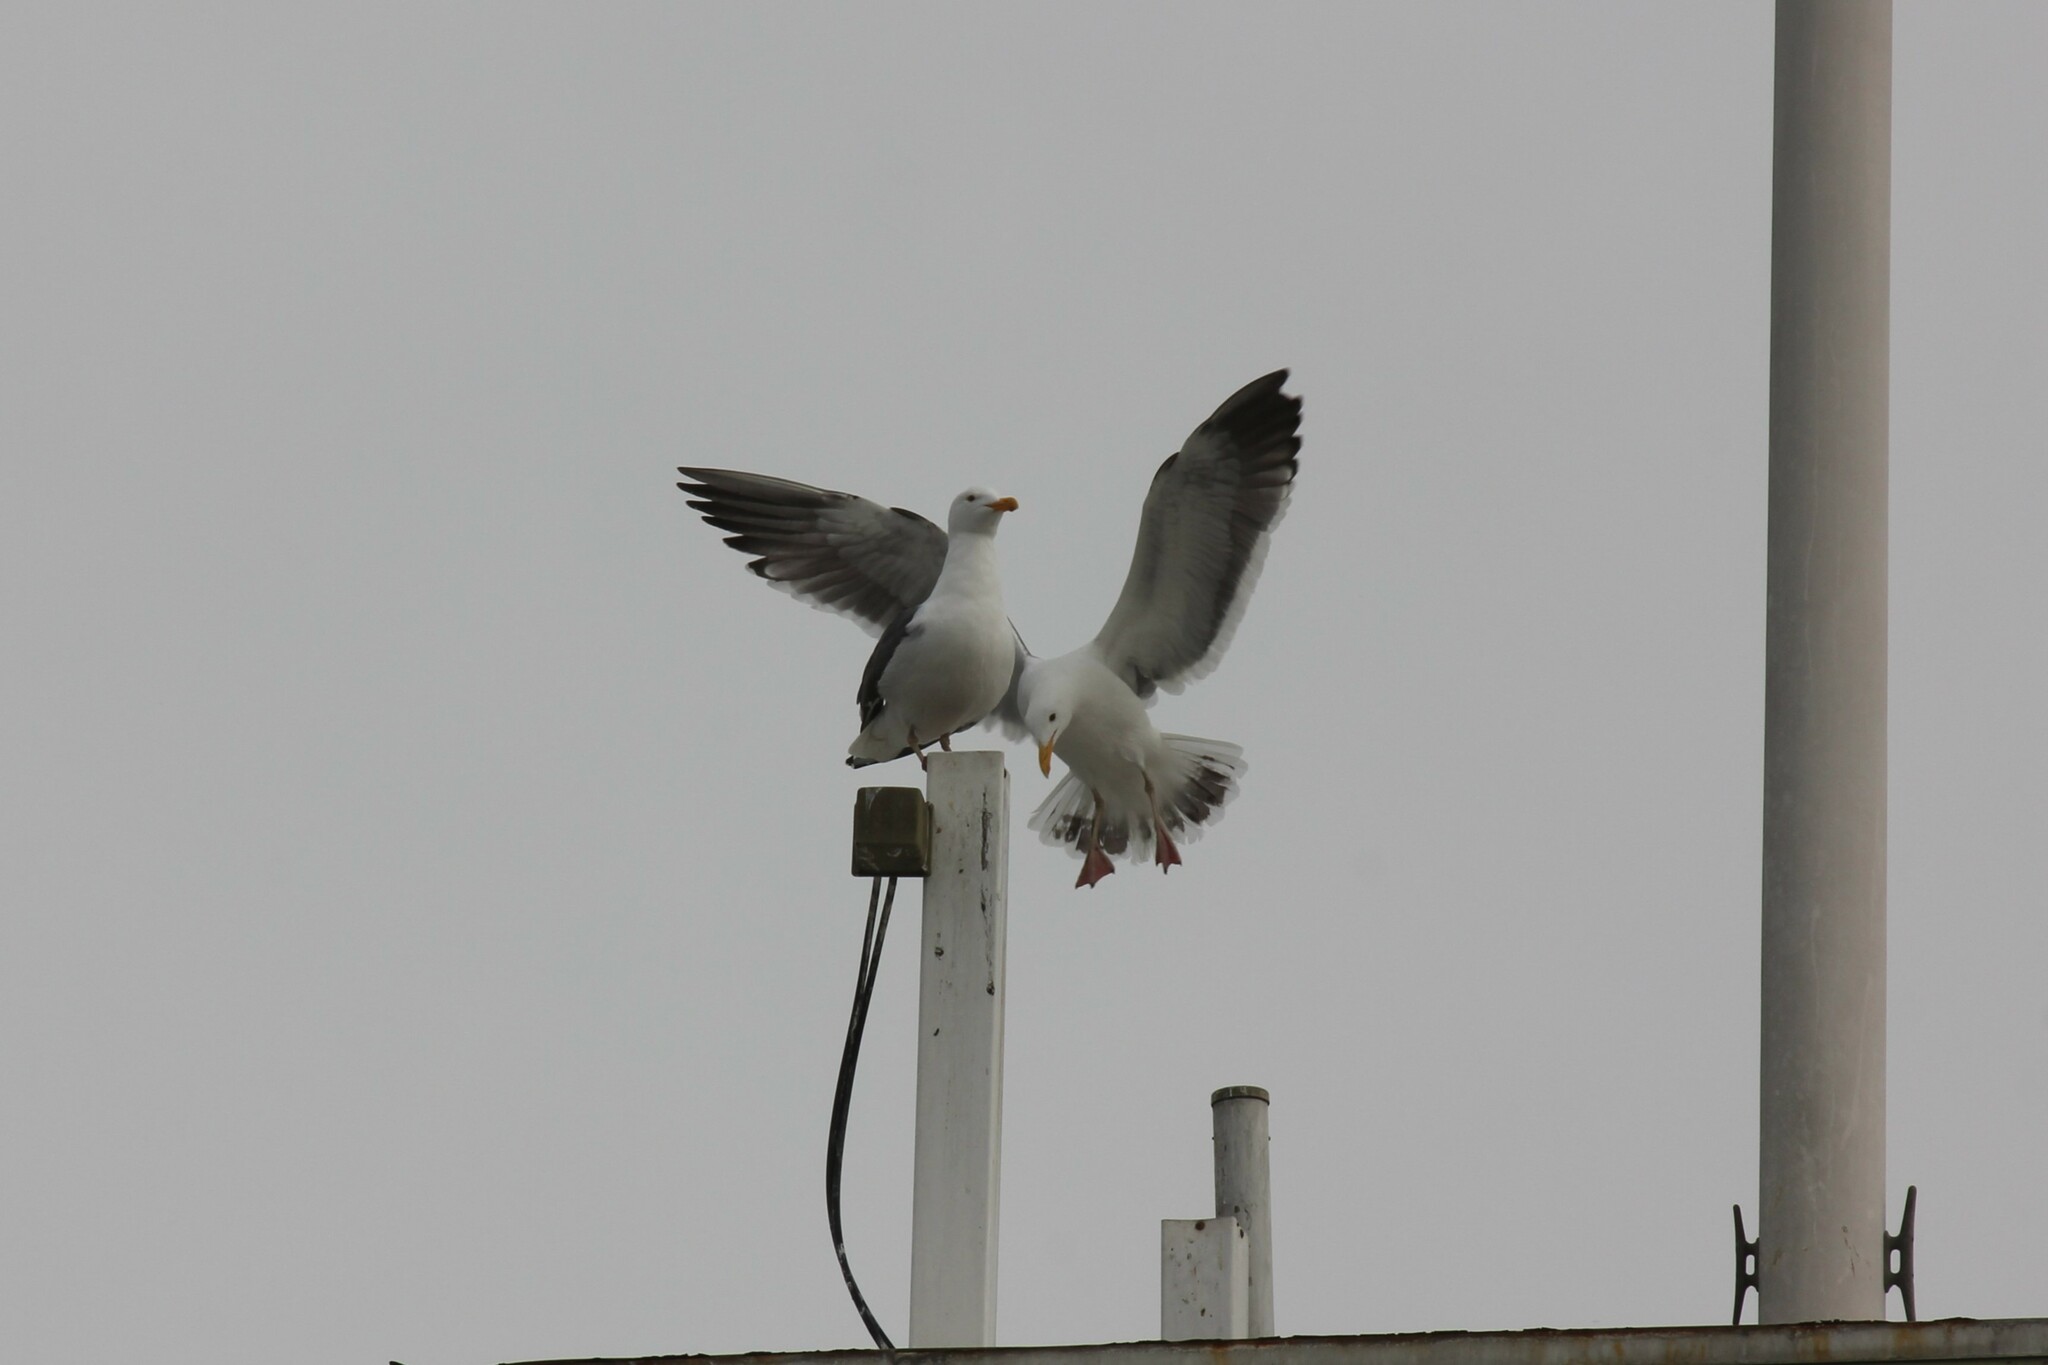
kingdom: Animalia
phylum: Chordata
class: Aves
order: Charadriiformes
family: Laridae
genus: Larus
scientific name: Larus occidentalis
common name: Western gull
